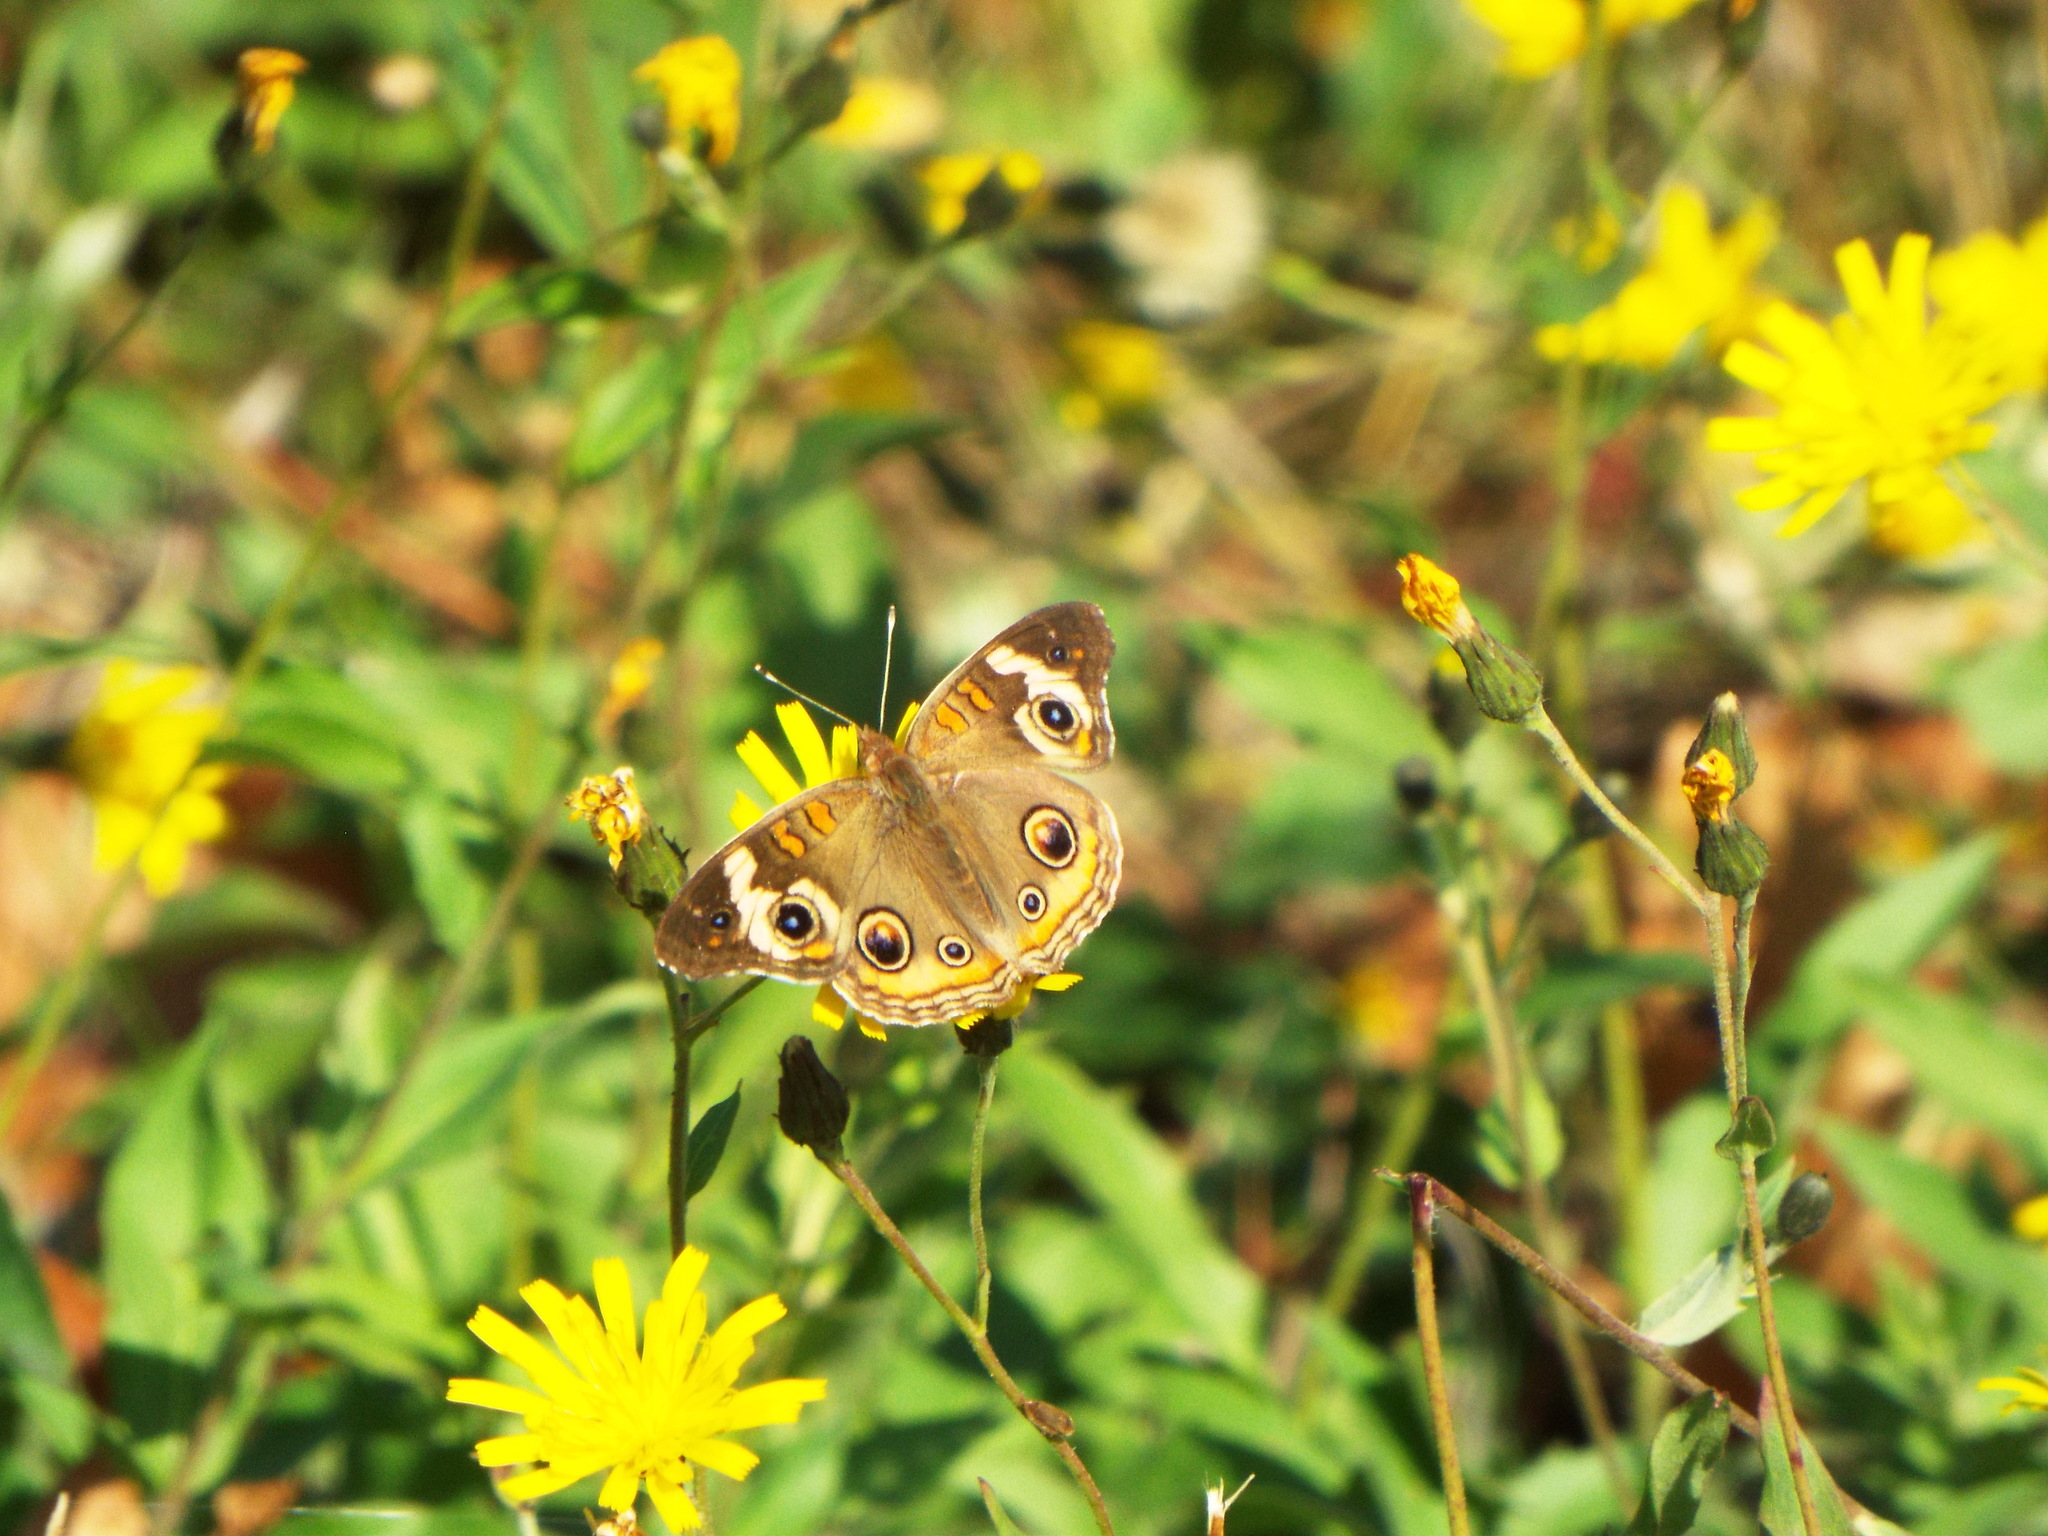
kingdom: Animalia
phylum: Arthropoda
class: Insecta
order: Lepidoptera
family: Nymphalidae
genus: Junonia
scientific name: Junonia coenia
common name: Common buckeye
